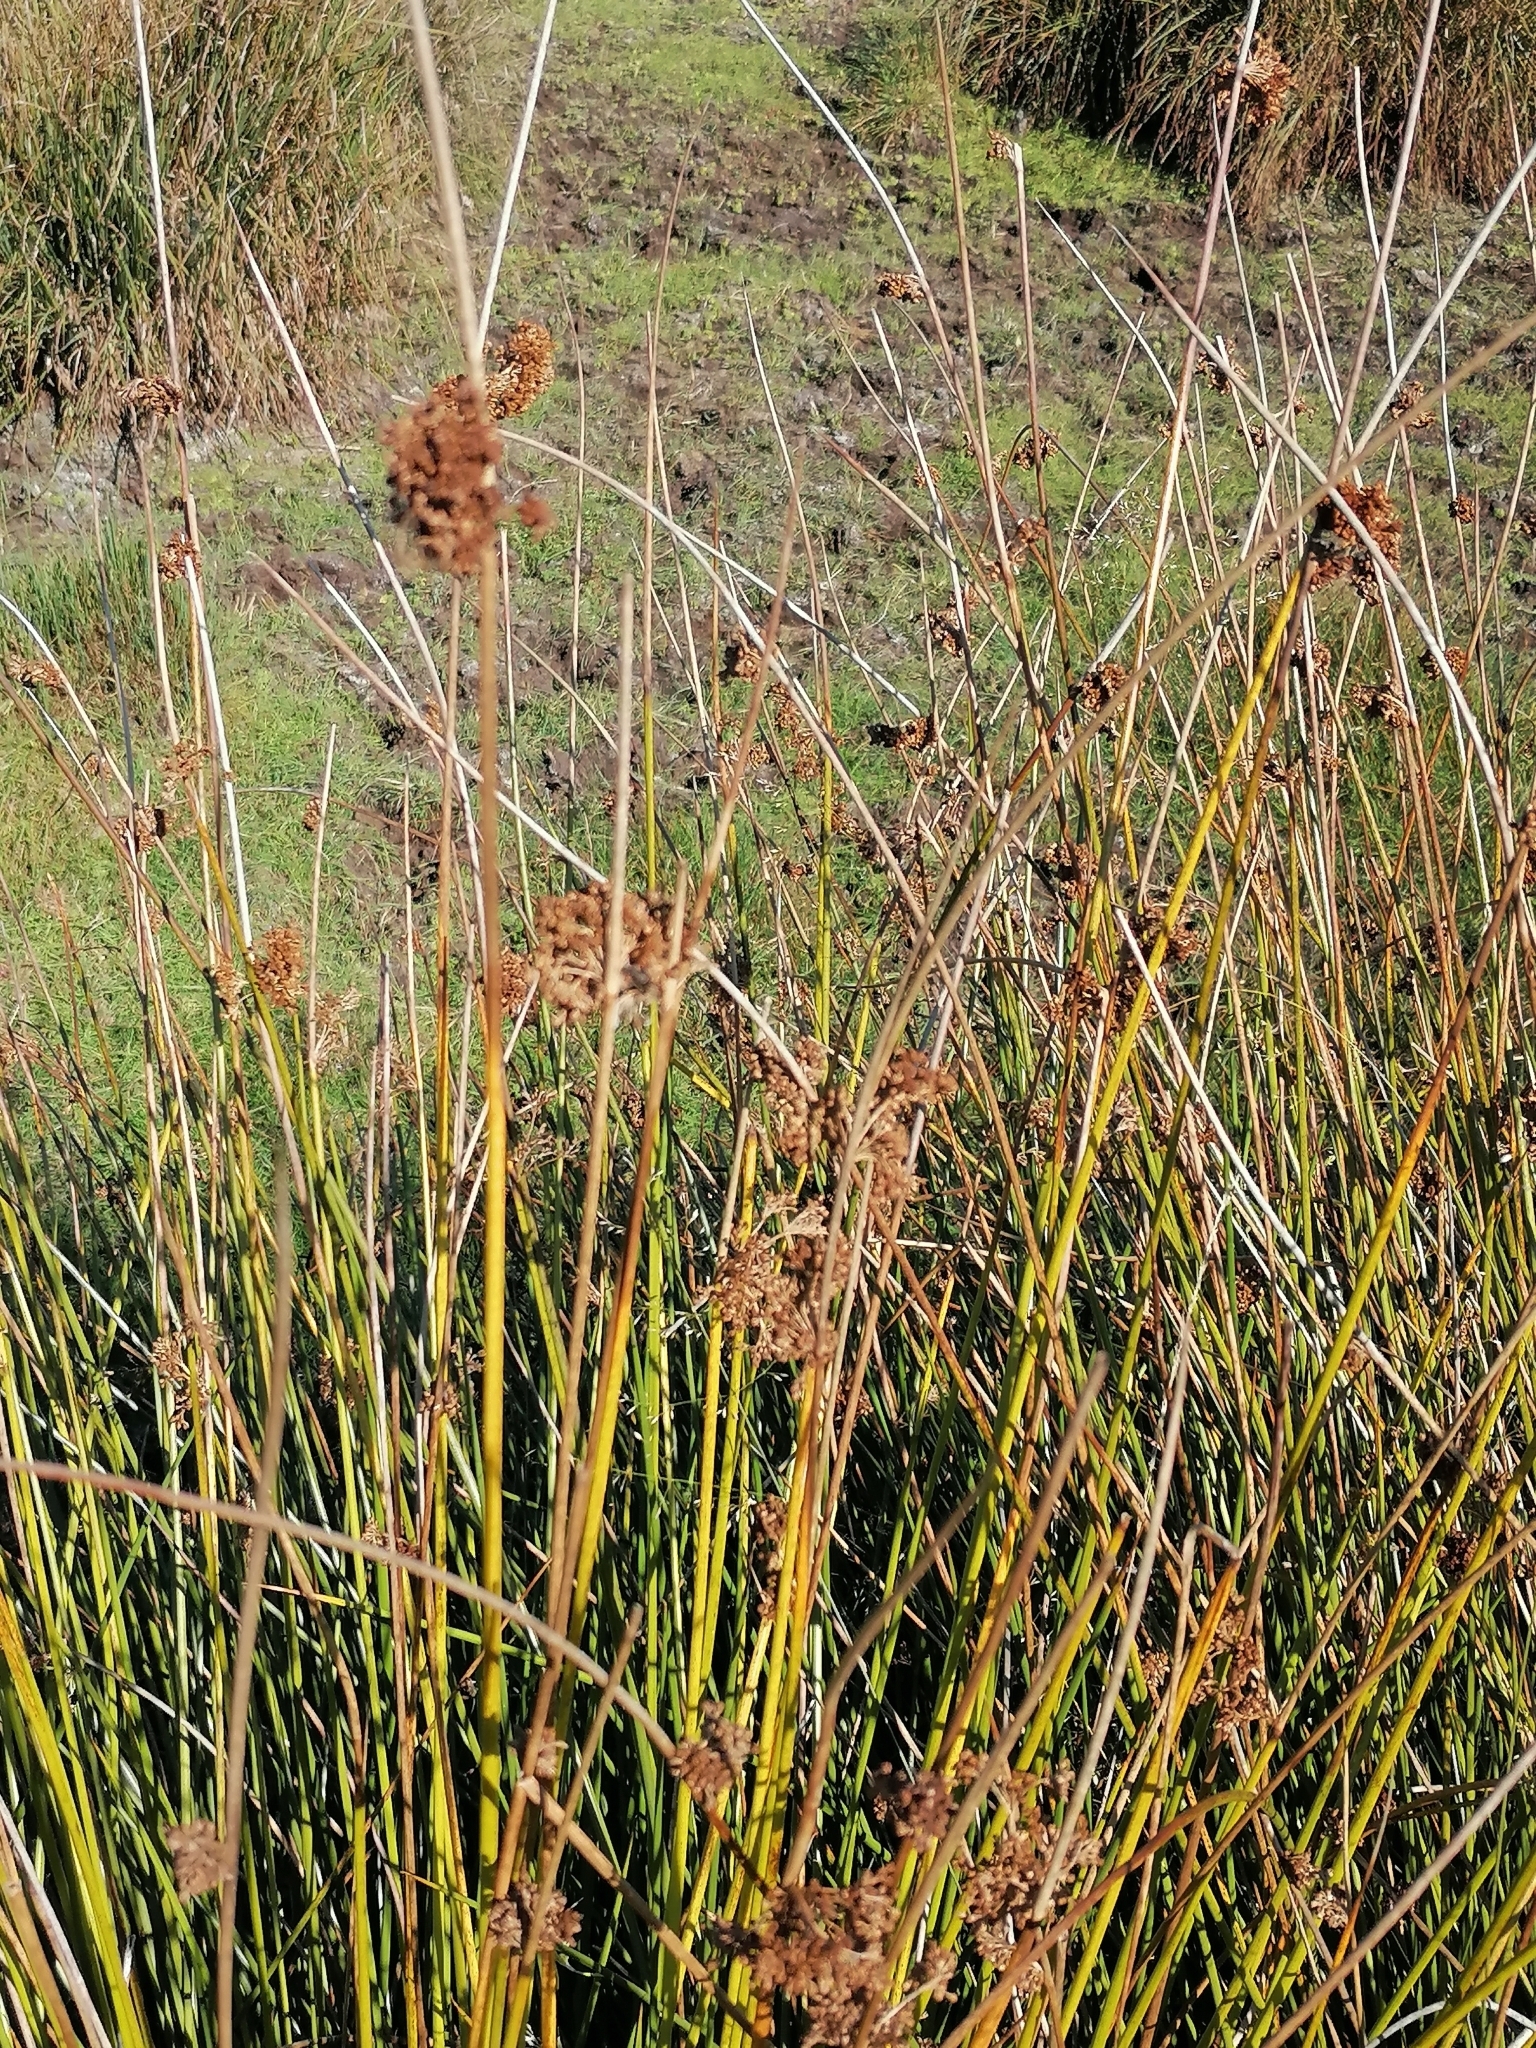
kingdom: Plantae
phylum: Tracheophyta
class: Liliopsida
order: Poales
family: Juncaceae
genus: Juncus
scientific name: Juncus effusus
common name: Soft rush
